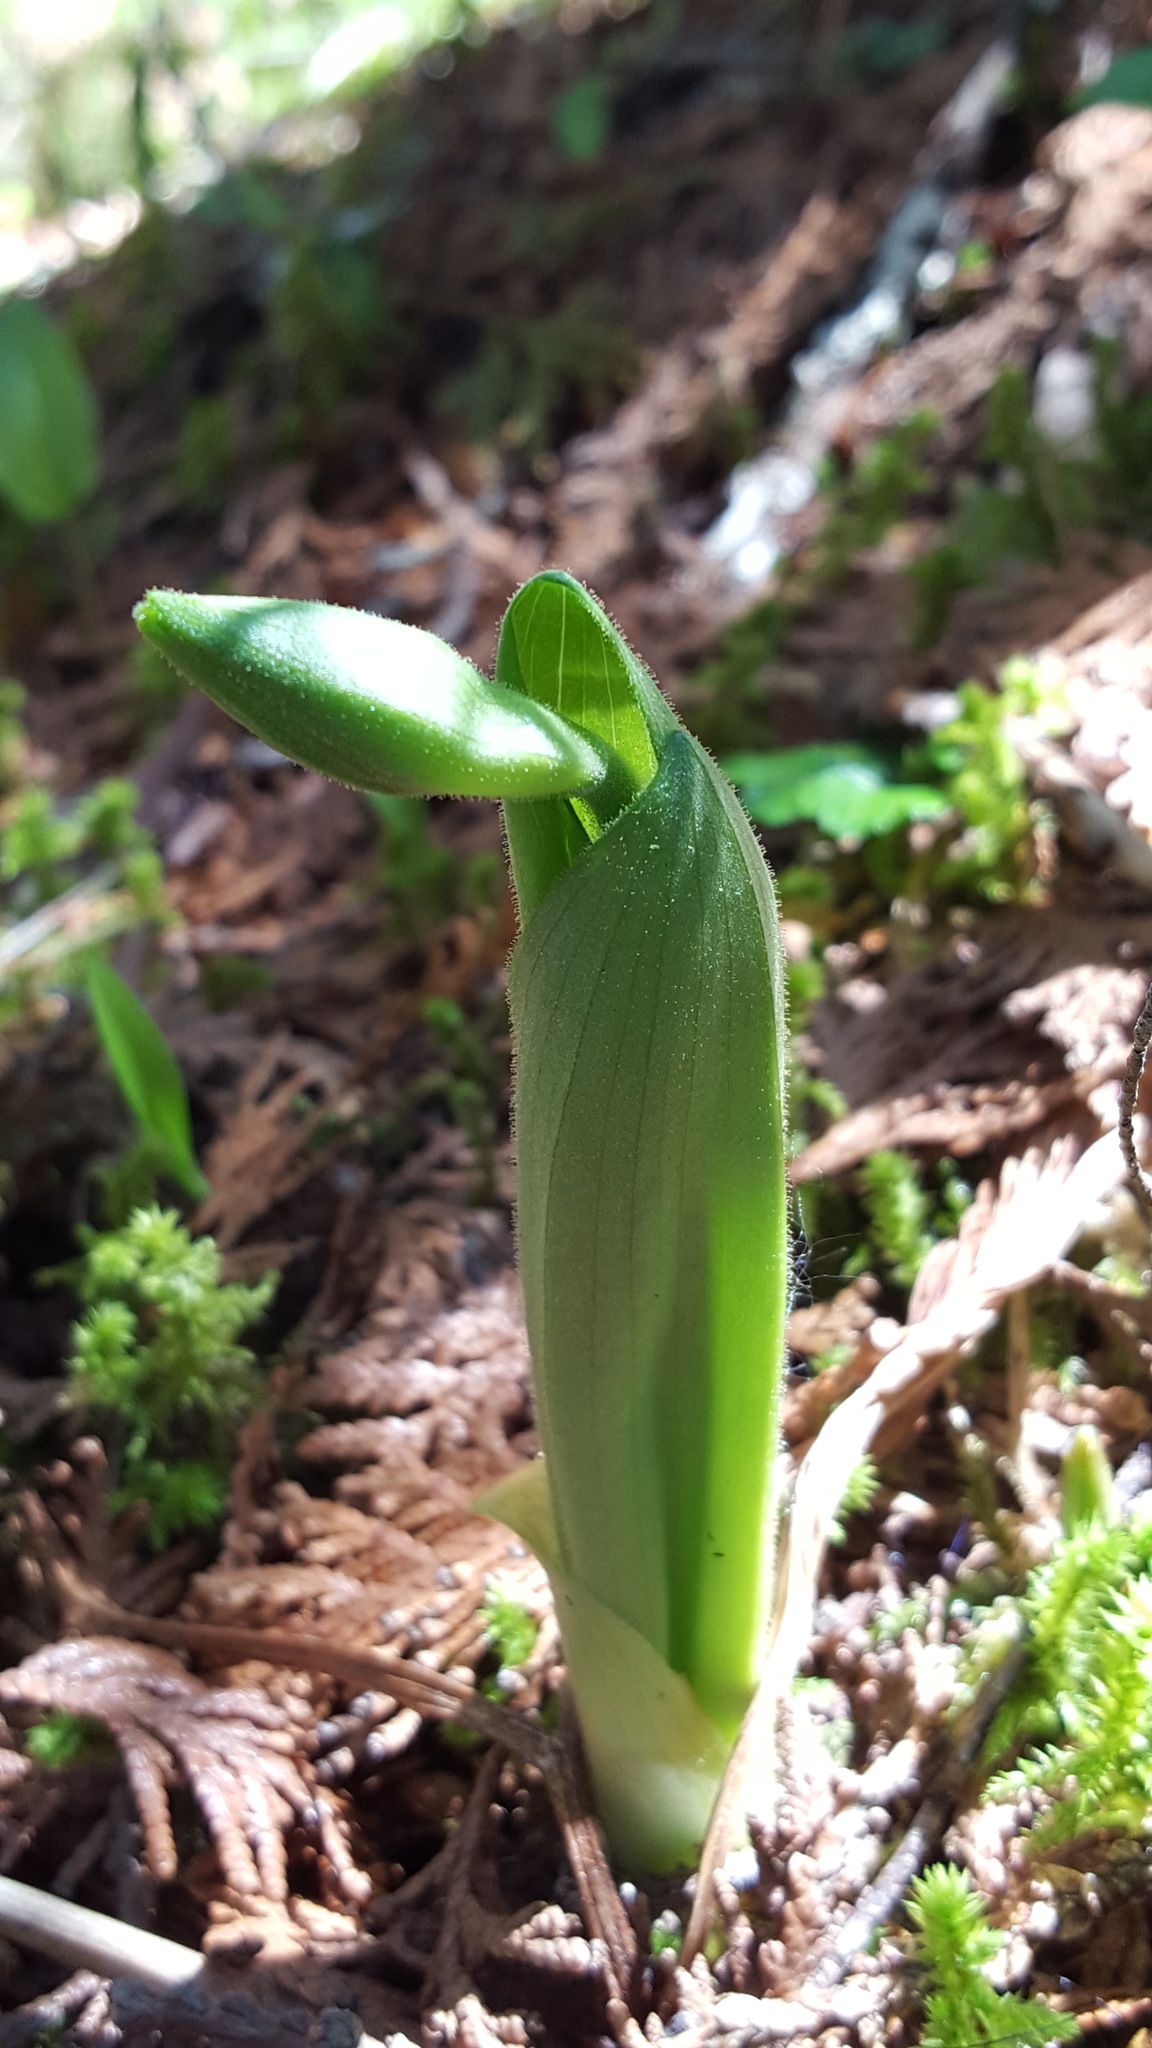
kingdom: Plantae
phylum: Tracheophyta
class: Liliopsida
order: Asparagales
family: Orchidaceae
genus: Cypripedium
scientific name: Cypripedium acaule
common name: Pink lady's-slipper
